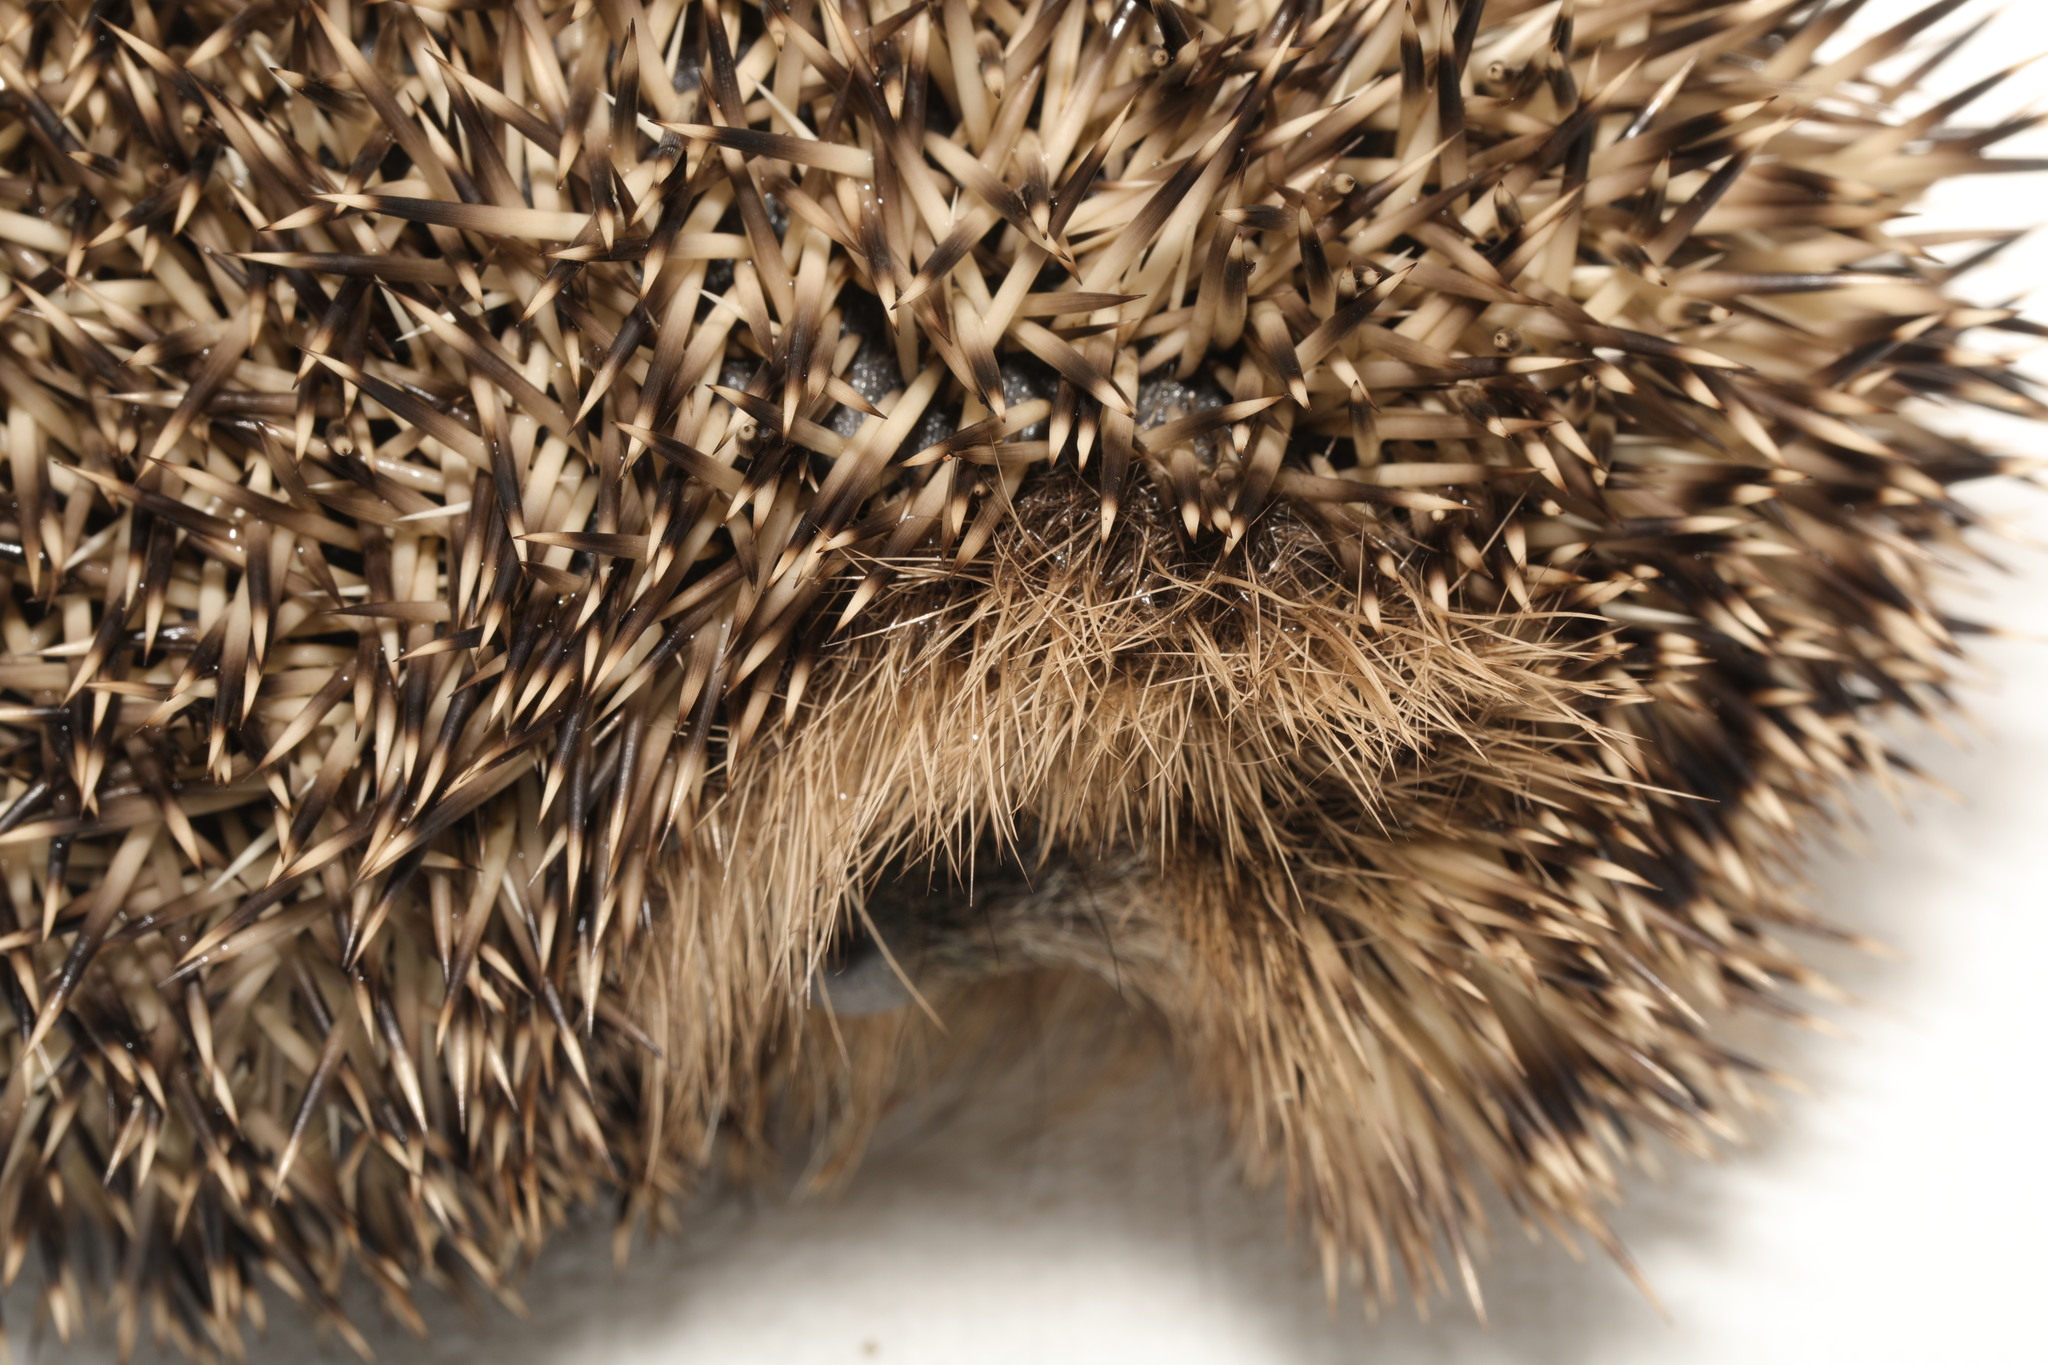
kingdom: Animalia
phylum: Chordata
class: Mammalia
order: Erinaceomorpha
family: Erinaceidae
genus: Erinaceus
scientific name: Erinaceus europaeus
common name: West european hedgehog
